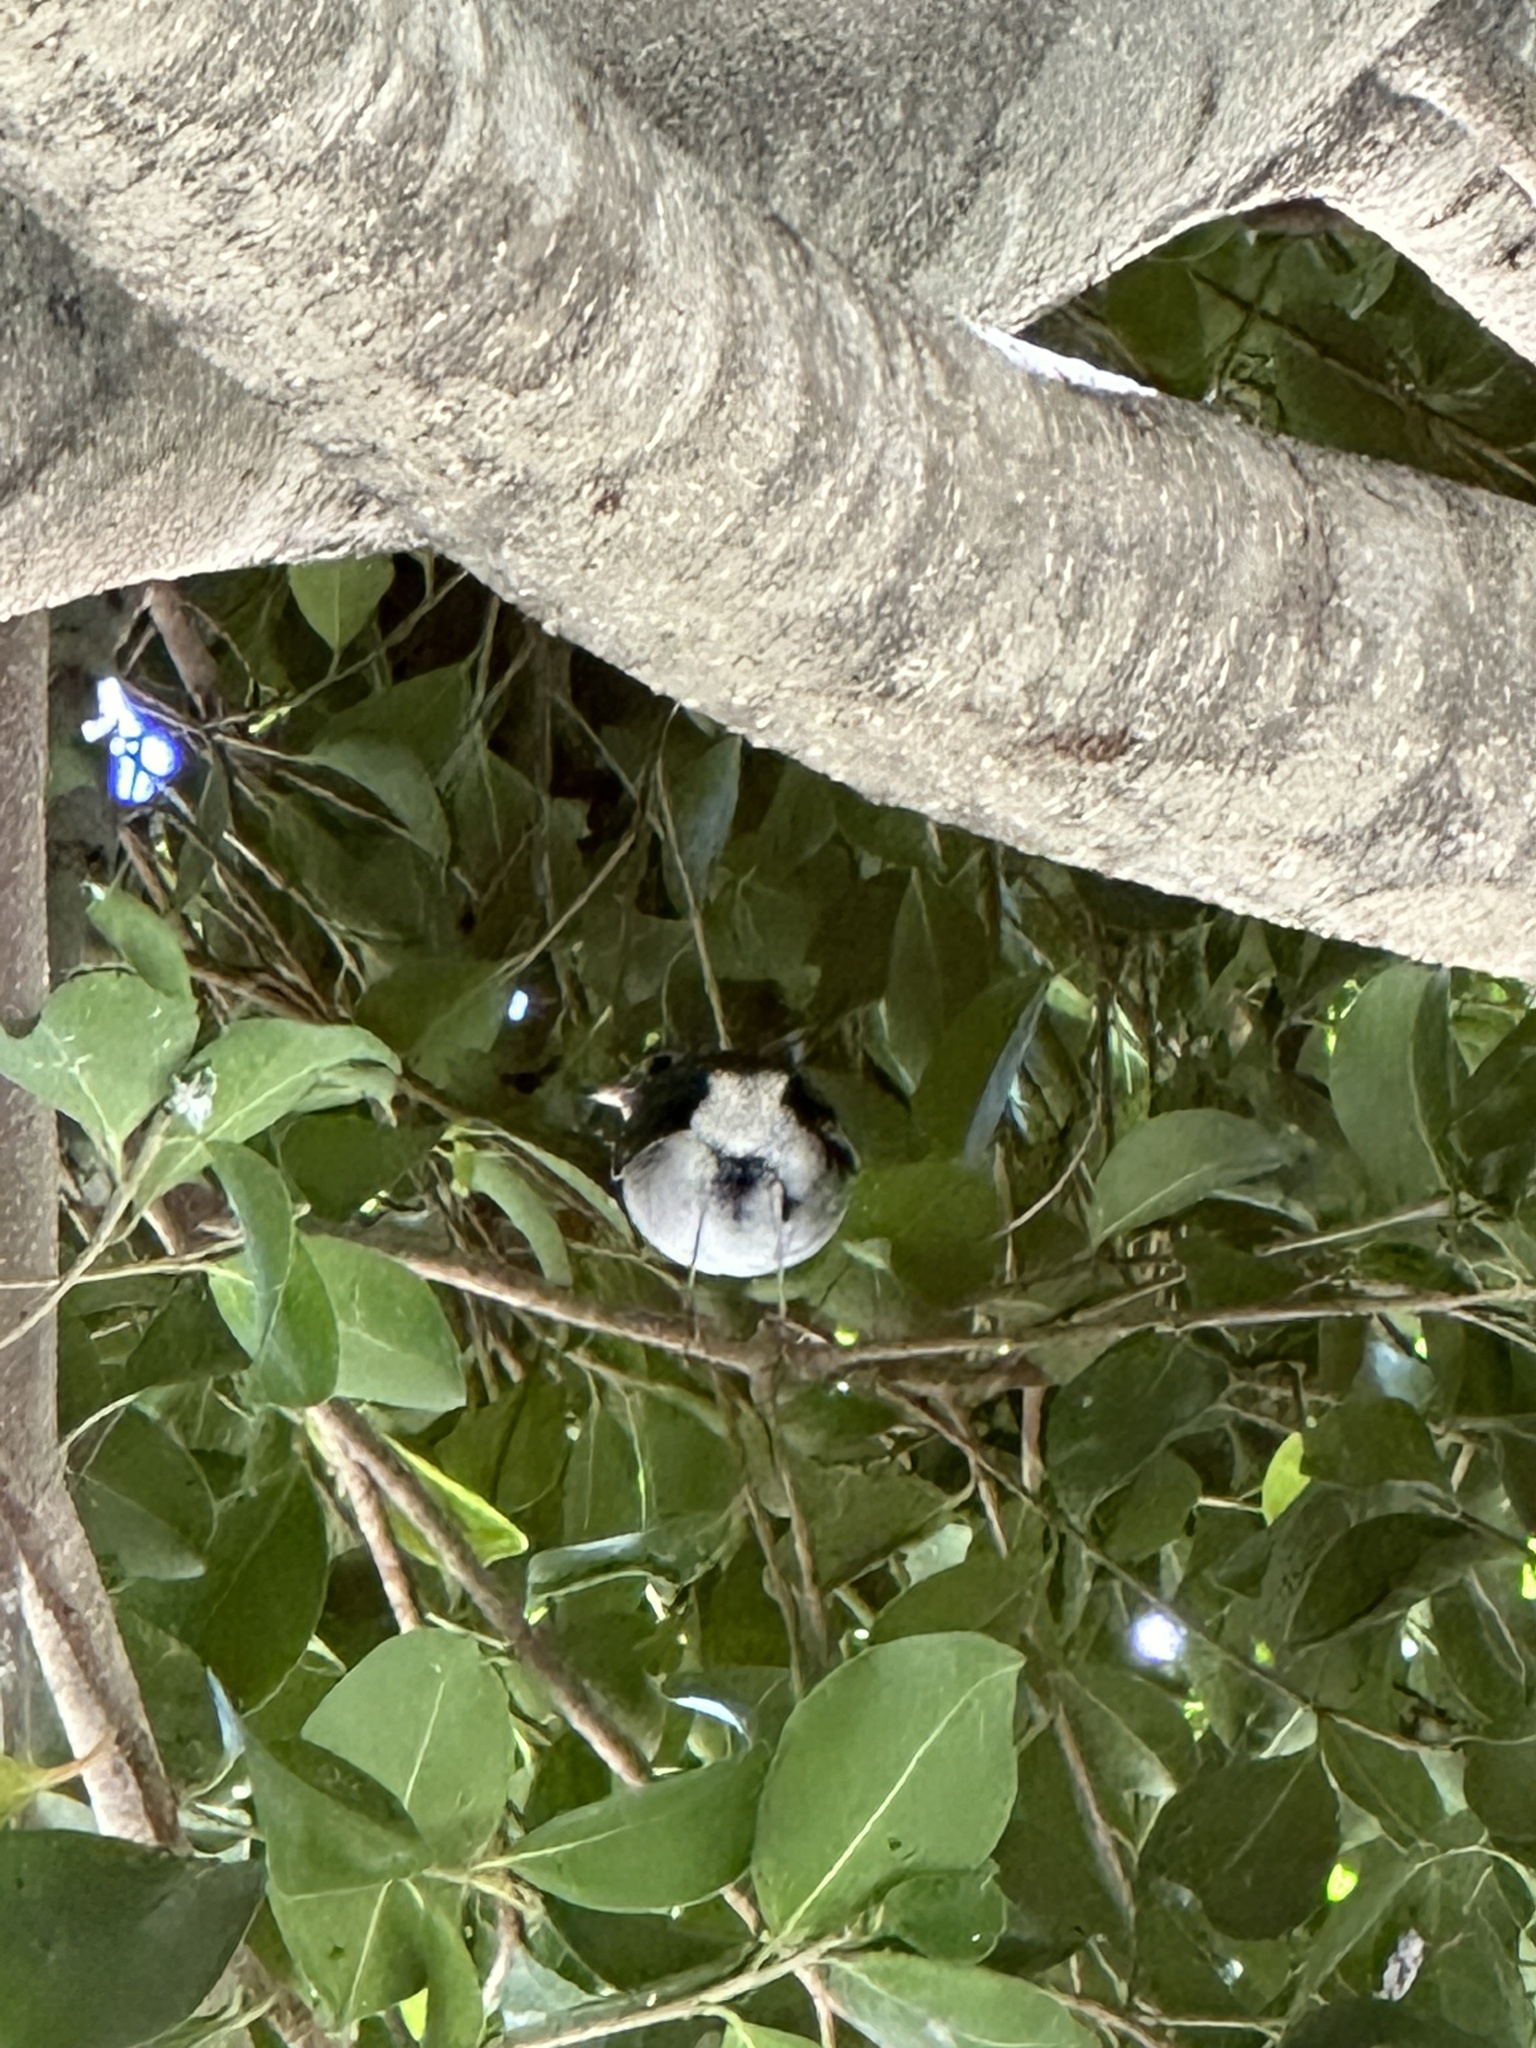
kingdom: Animalia
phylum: Chordata
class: Aves
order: Passeriformes
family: Turdidae
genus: Catharus
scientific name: Catharus guttatus
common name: Hermit thrush
